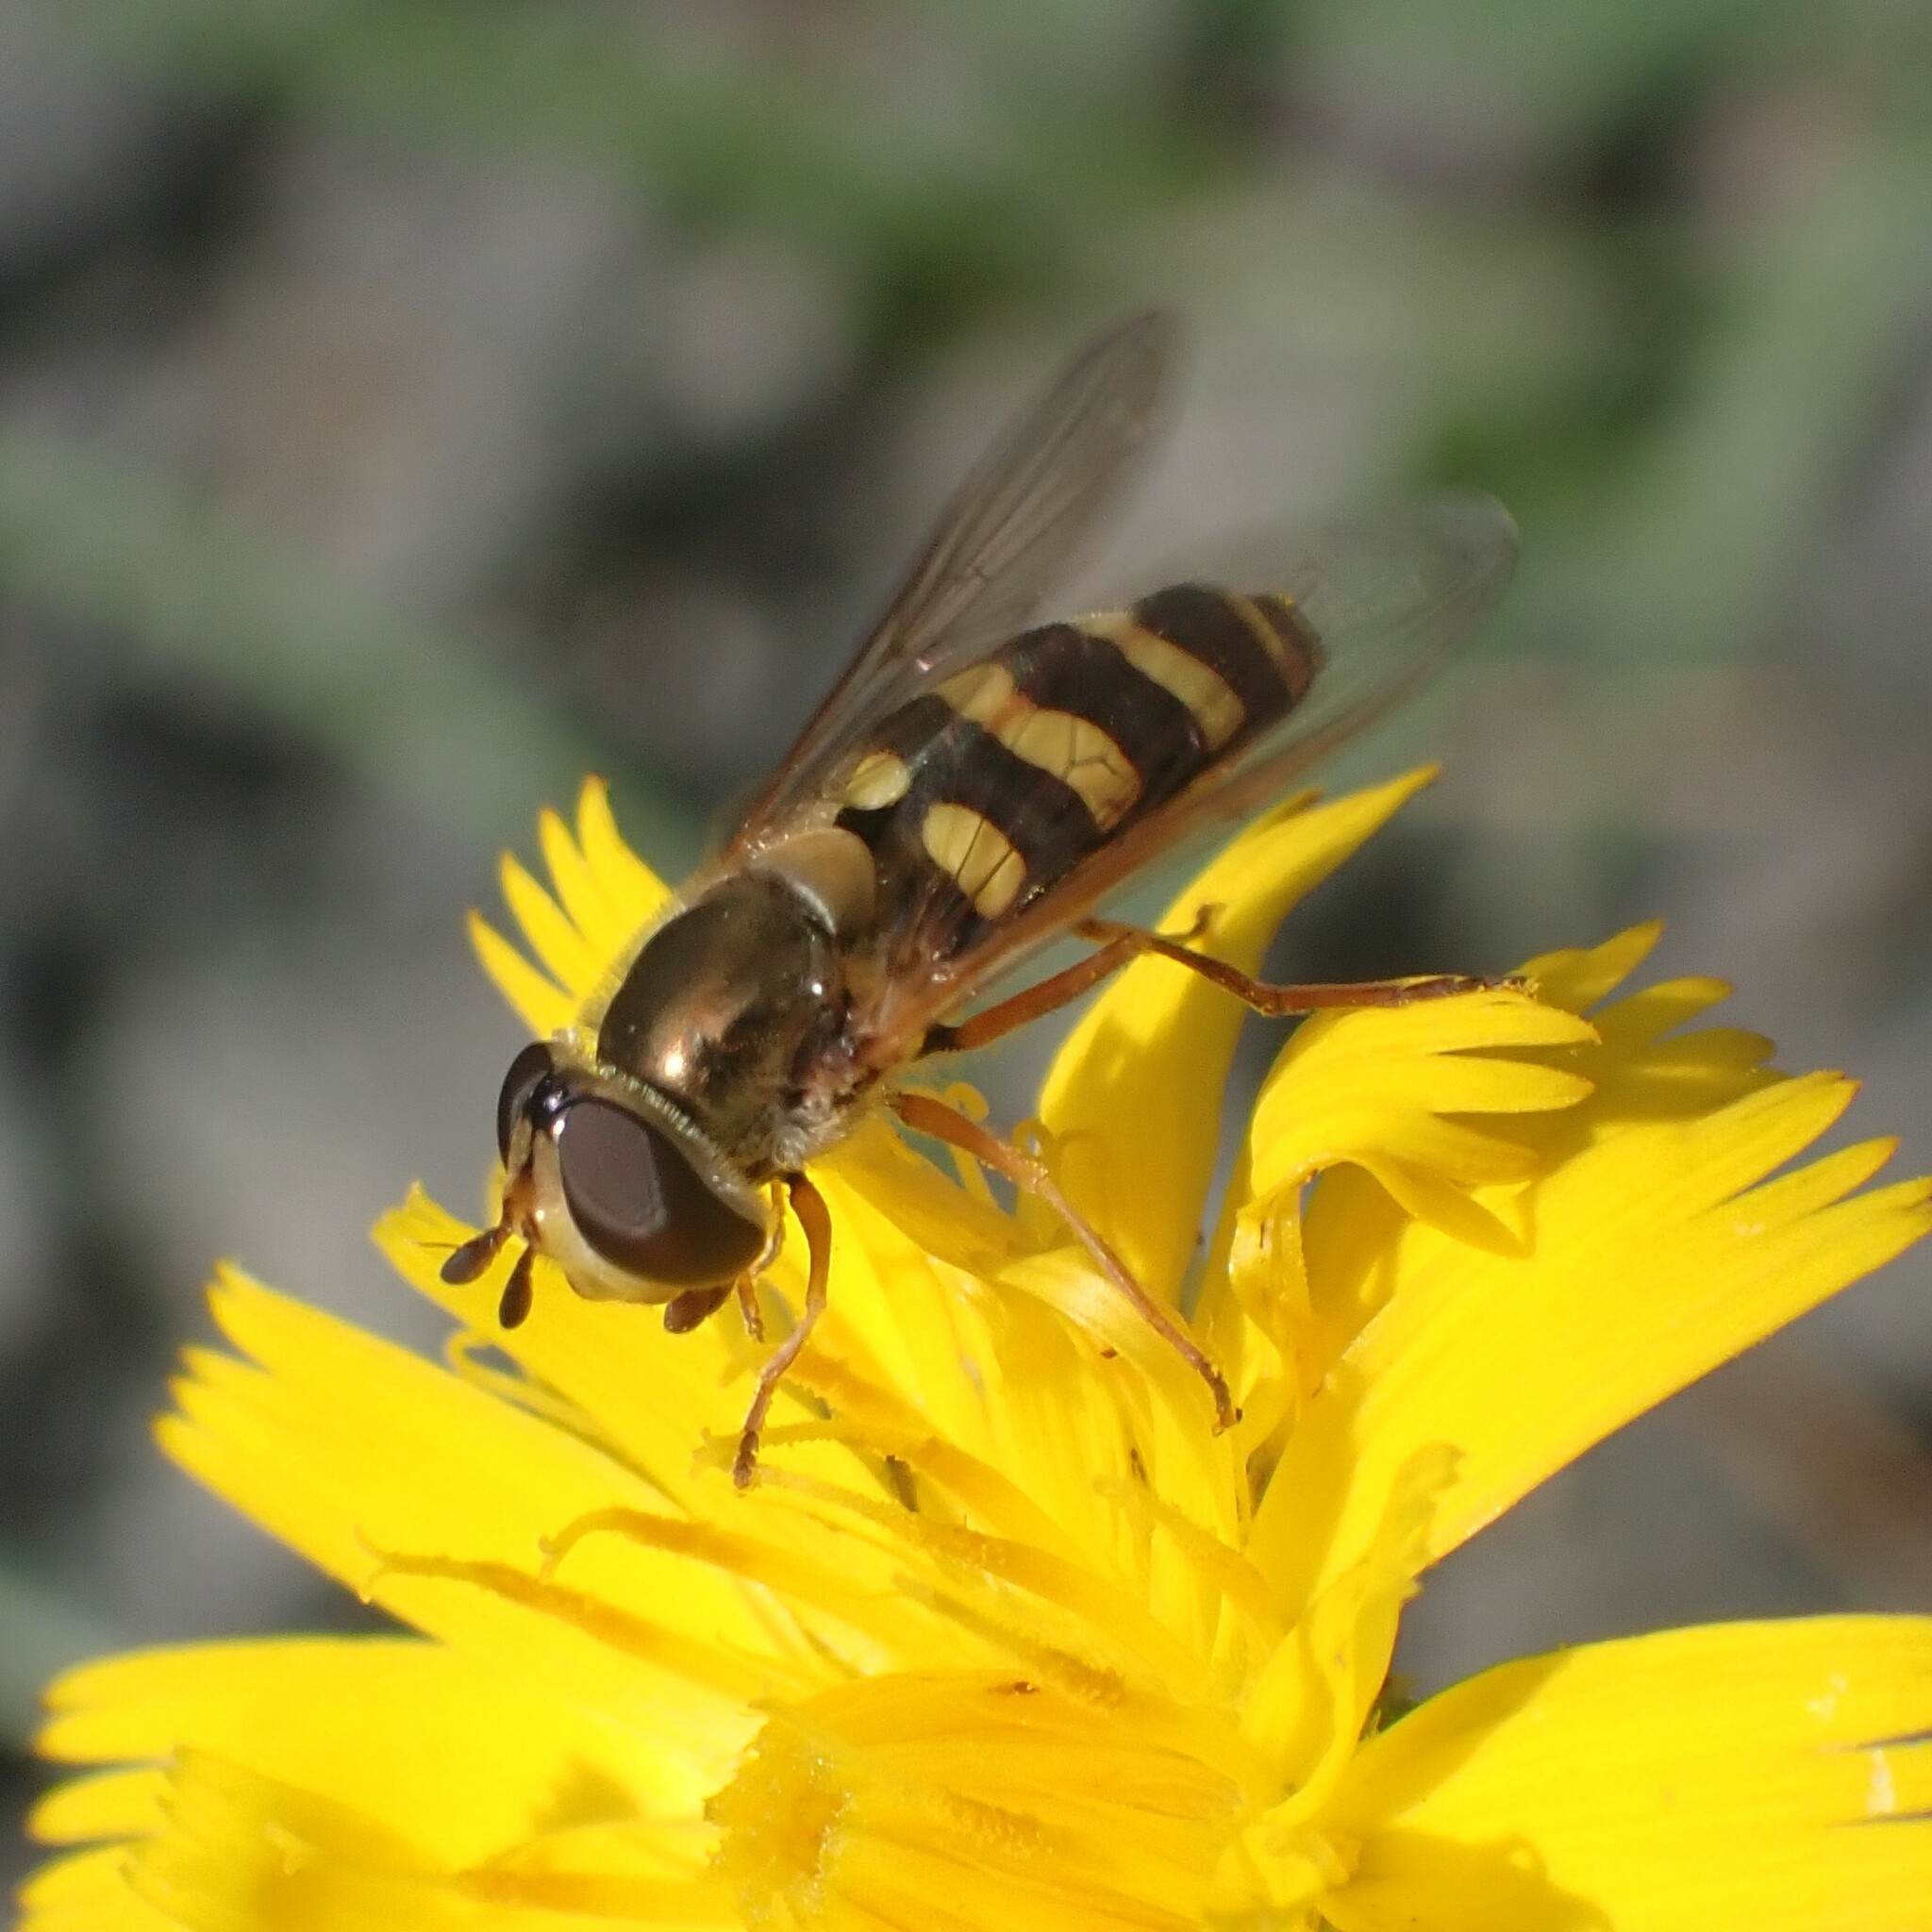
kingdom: Animalia
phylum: Arthropoda
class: Insecta
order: Diptera
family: Syrphidae
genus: Eupeodes
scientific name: Eupeodes fumipennis
